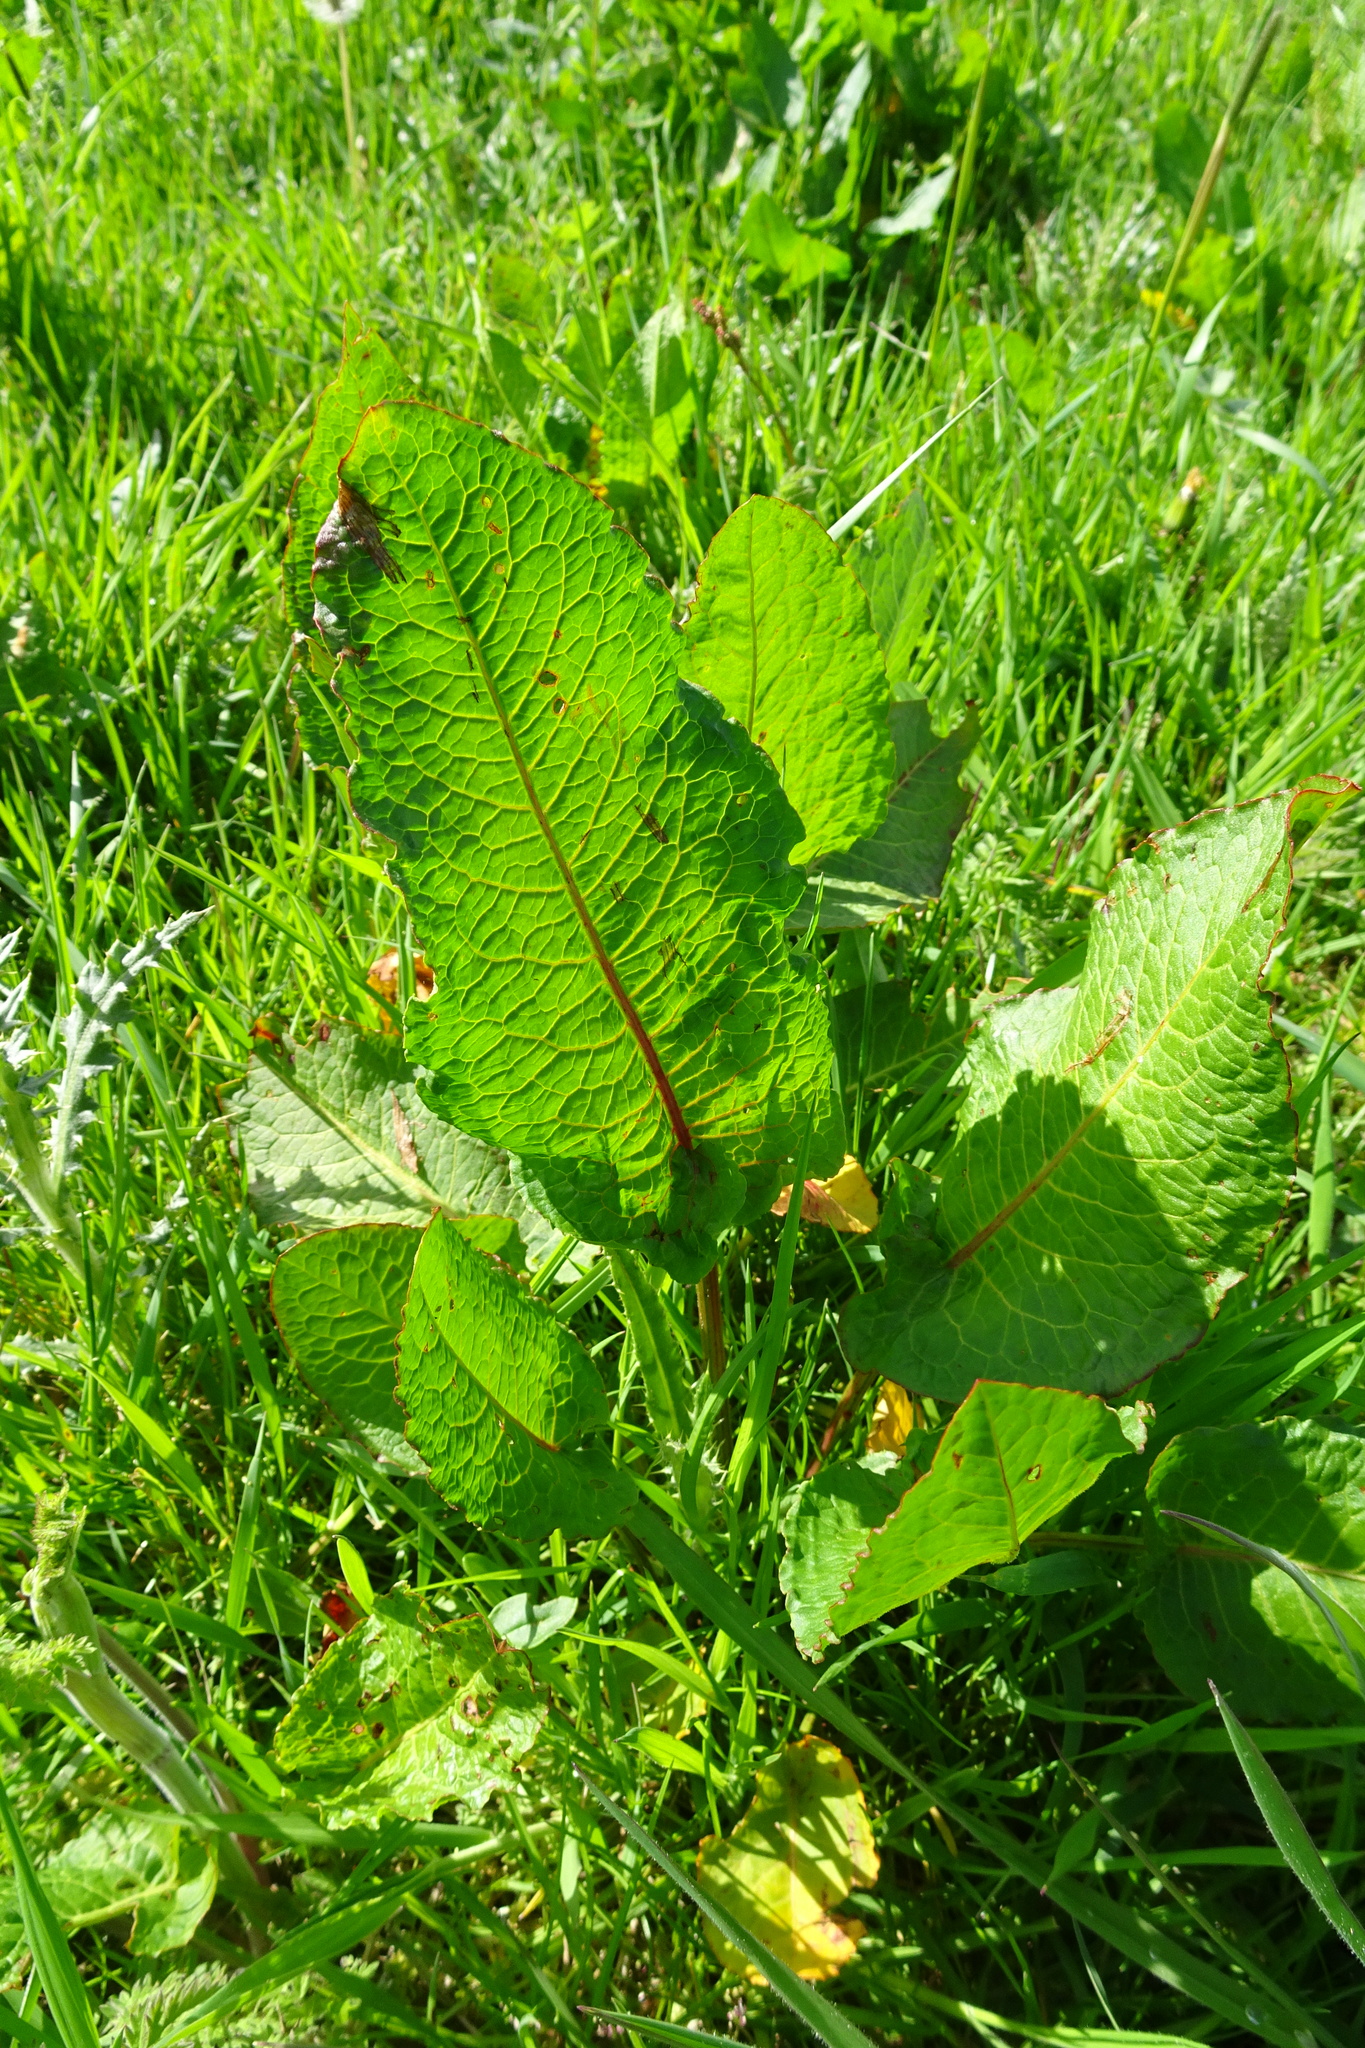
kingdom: Plantae
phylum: Tracheophyta
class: Magnoliopsida
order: Caryophyllales
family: Polygonaceae
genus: Rumex
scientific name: Rumex obtusifolius
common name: Bitter dock
